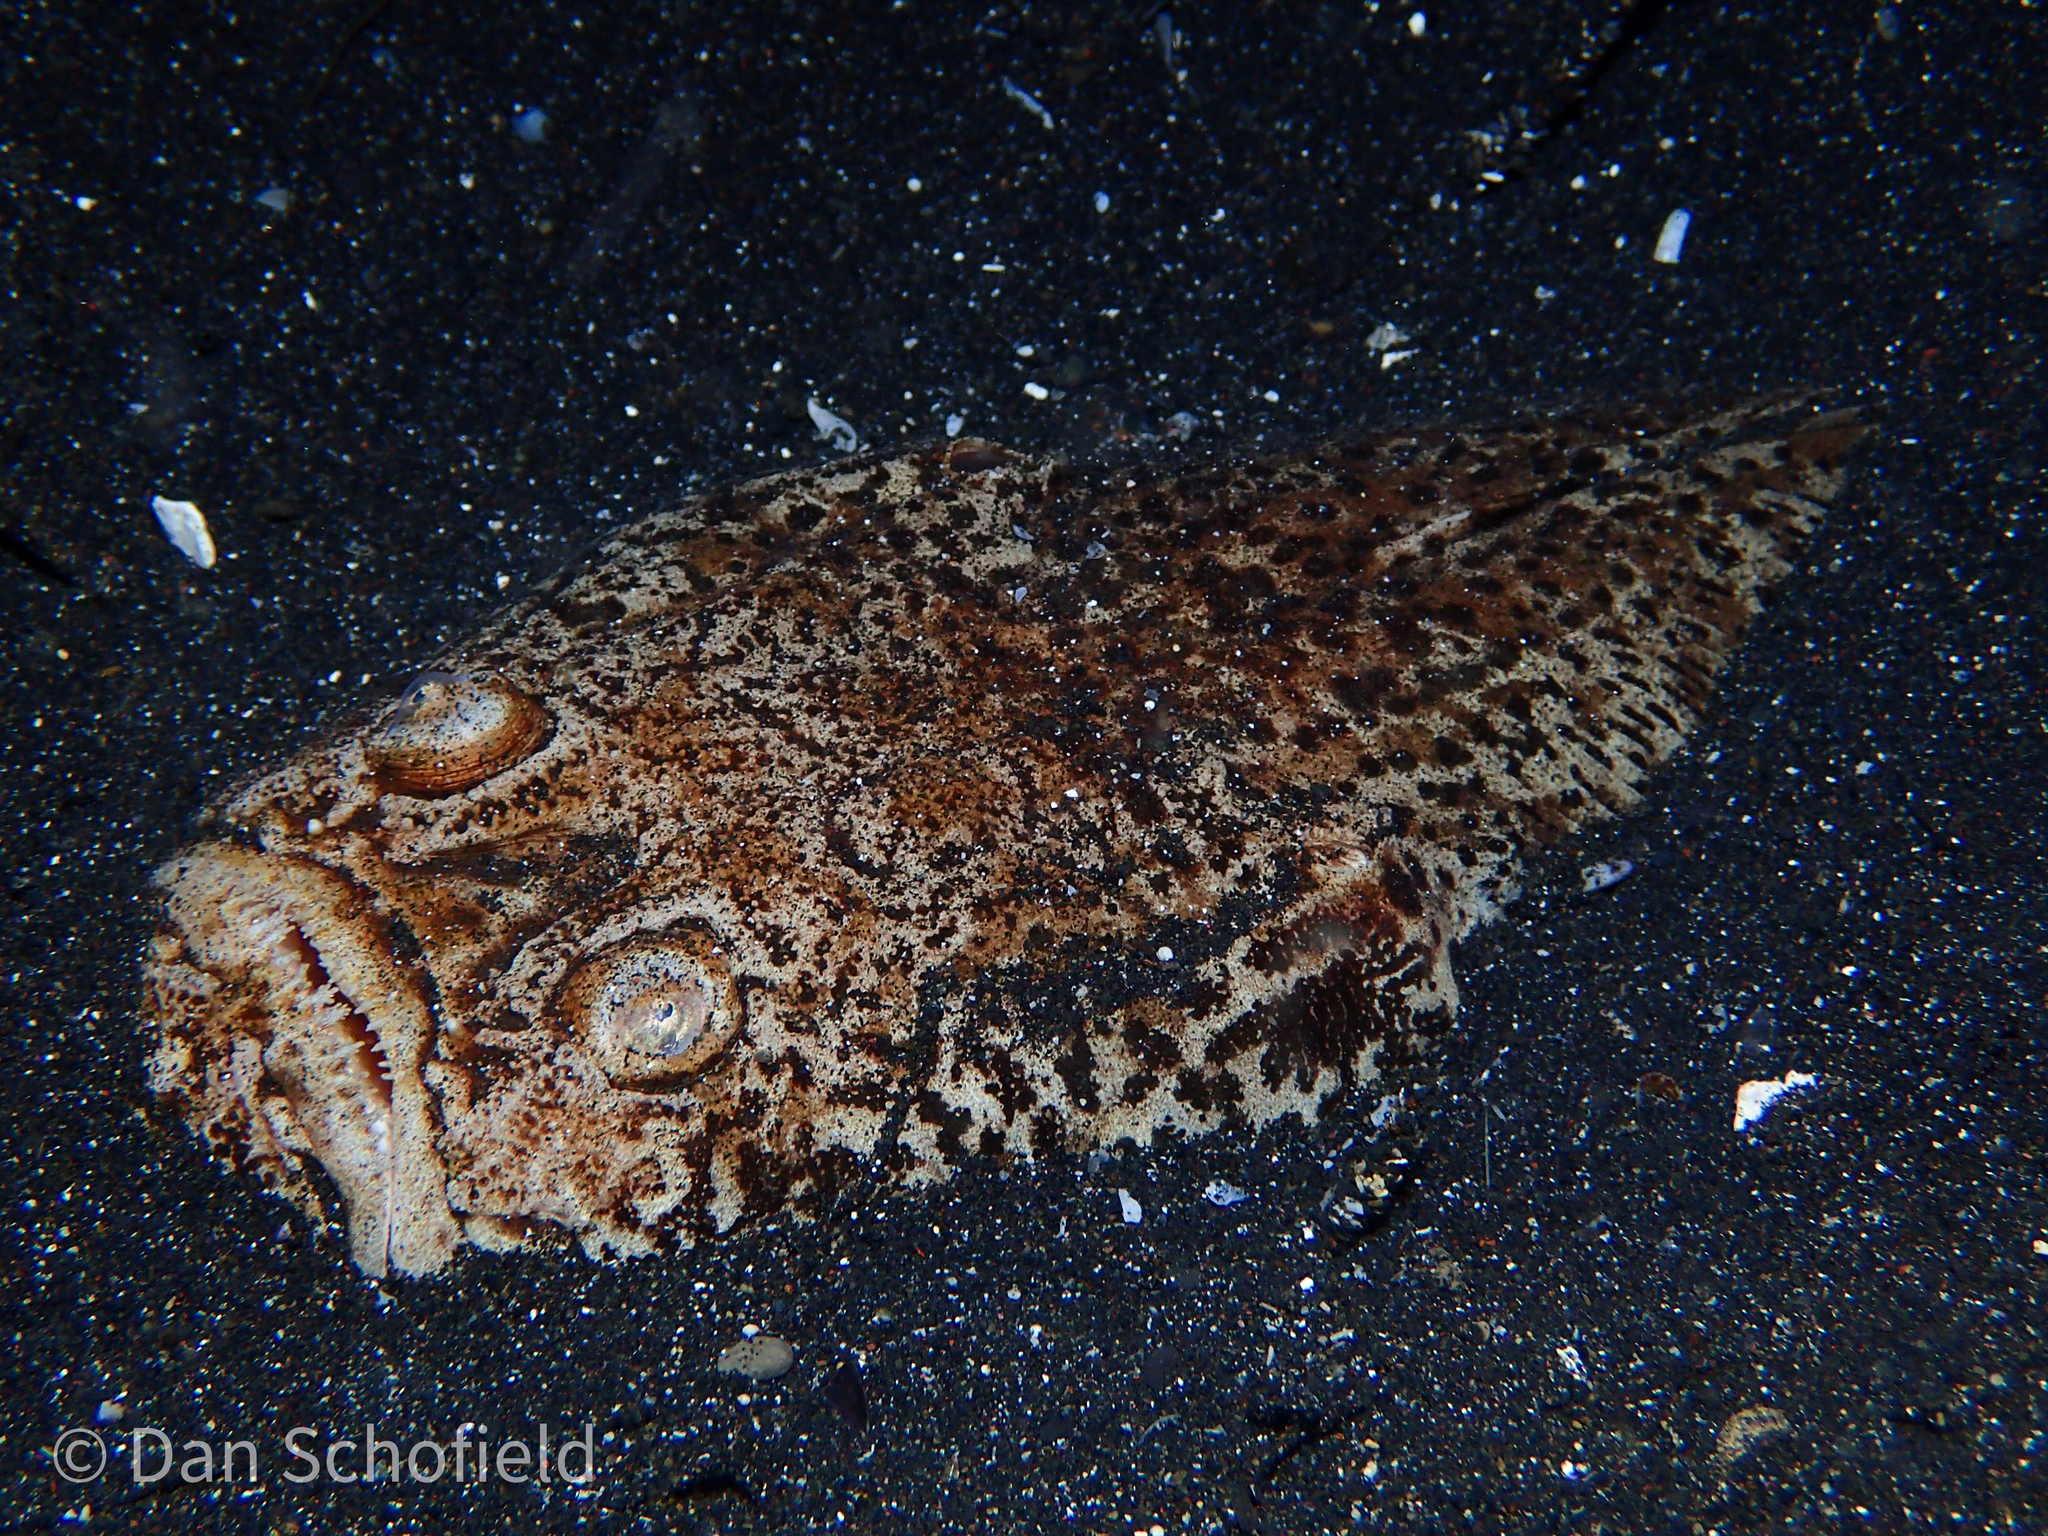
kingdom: Animalia
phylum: Chordata
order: Perciformes
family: Uranoscopidae
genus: Uranoscopus
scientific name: Uranoscopus bicinctus
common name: Marbled stargazer
